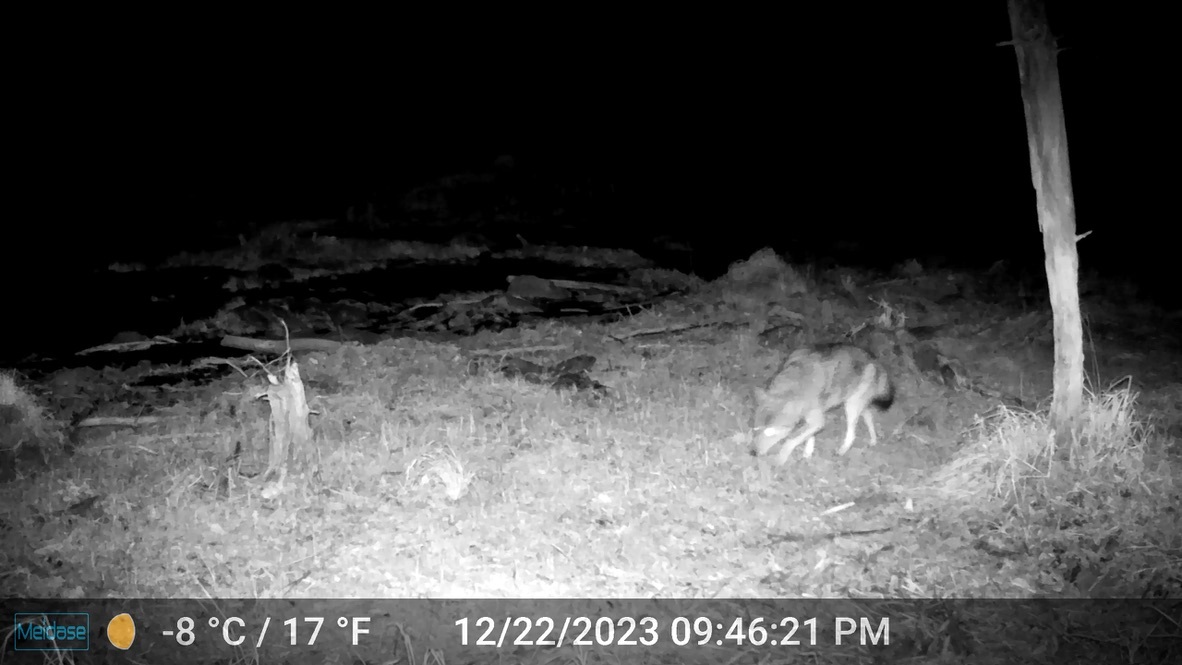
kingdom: Animalia
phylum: Chordata
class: Mammalia
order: Carnivora
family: Canidae
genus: Canis
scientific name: Canis latrans
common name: Coyote
